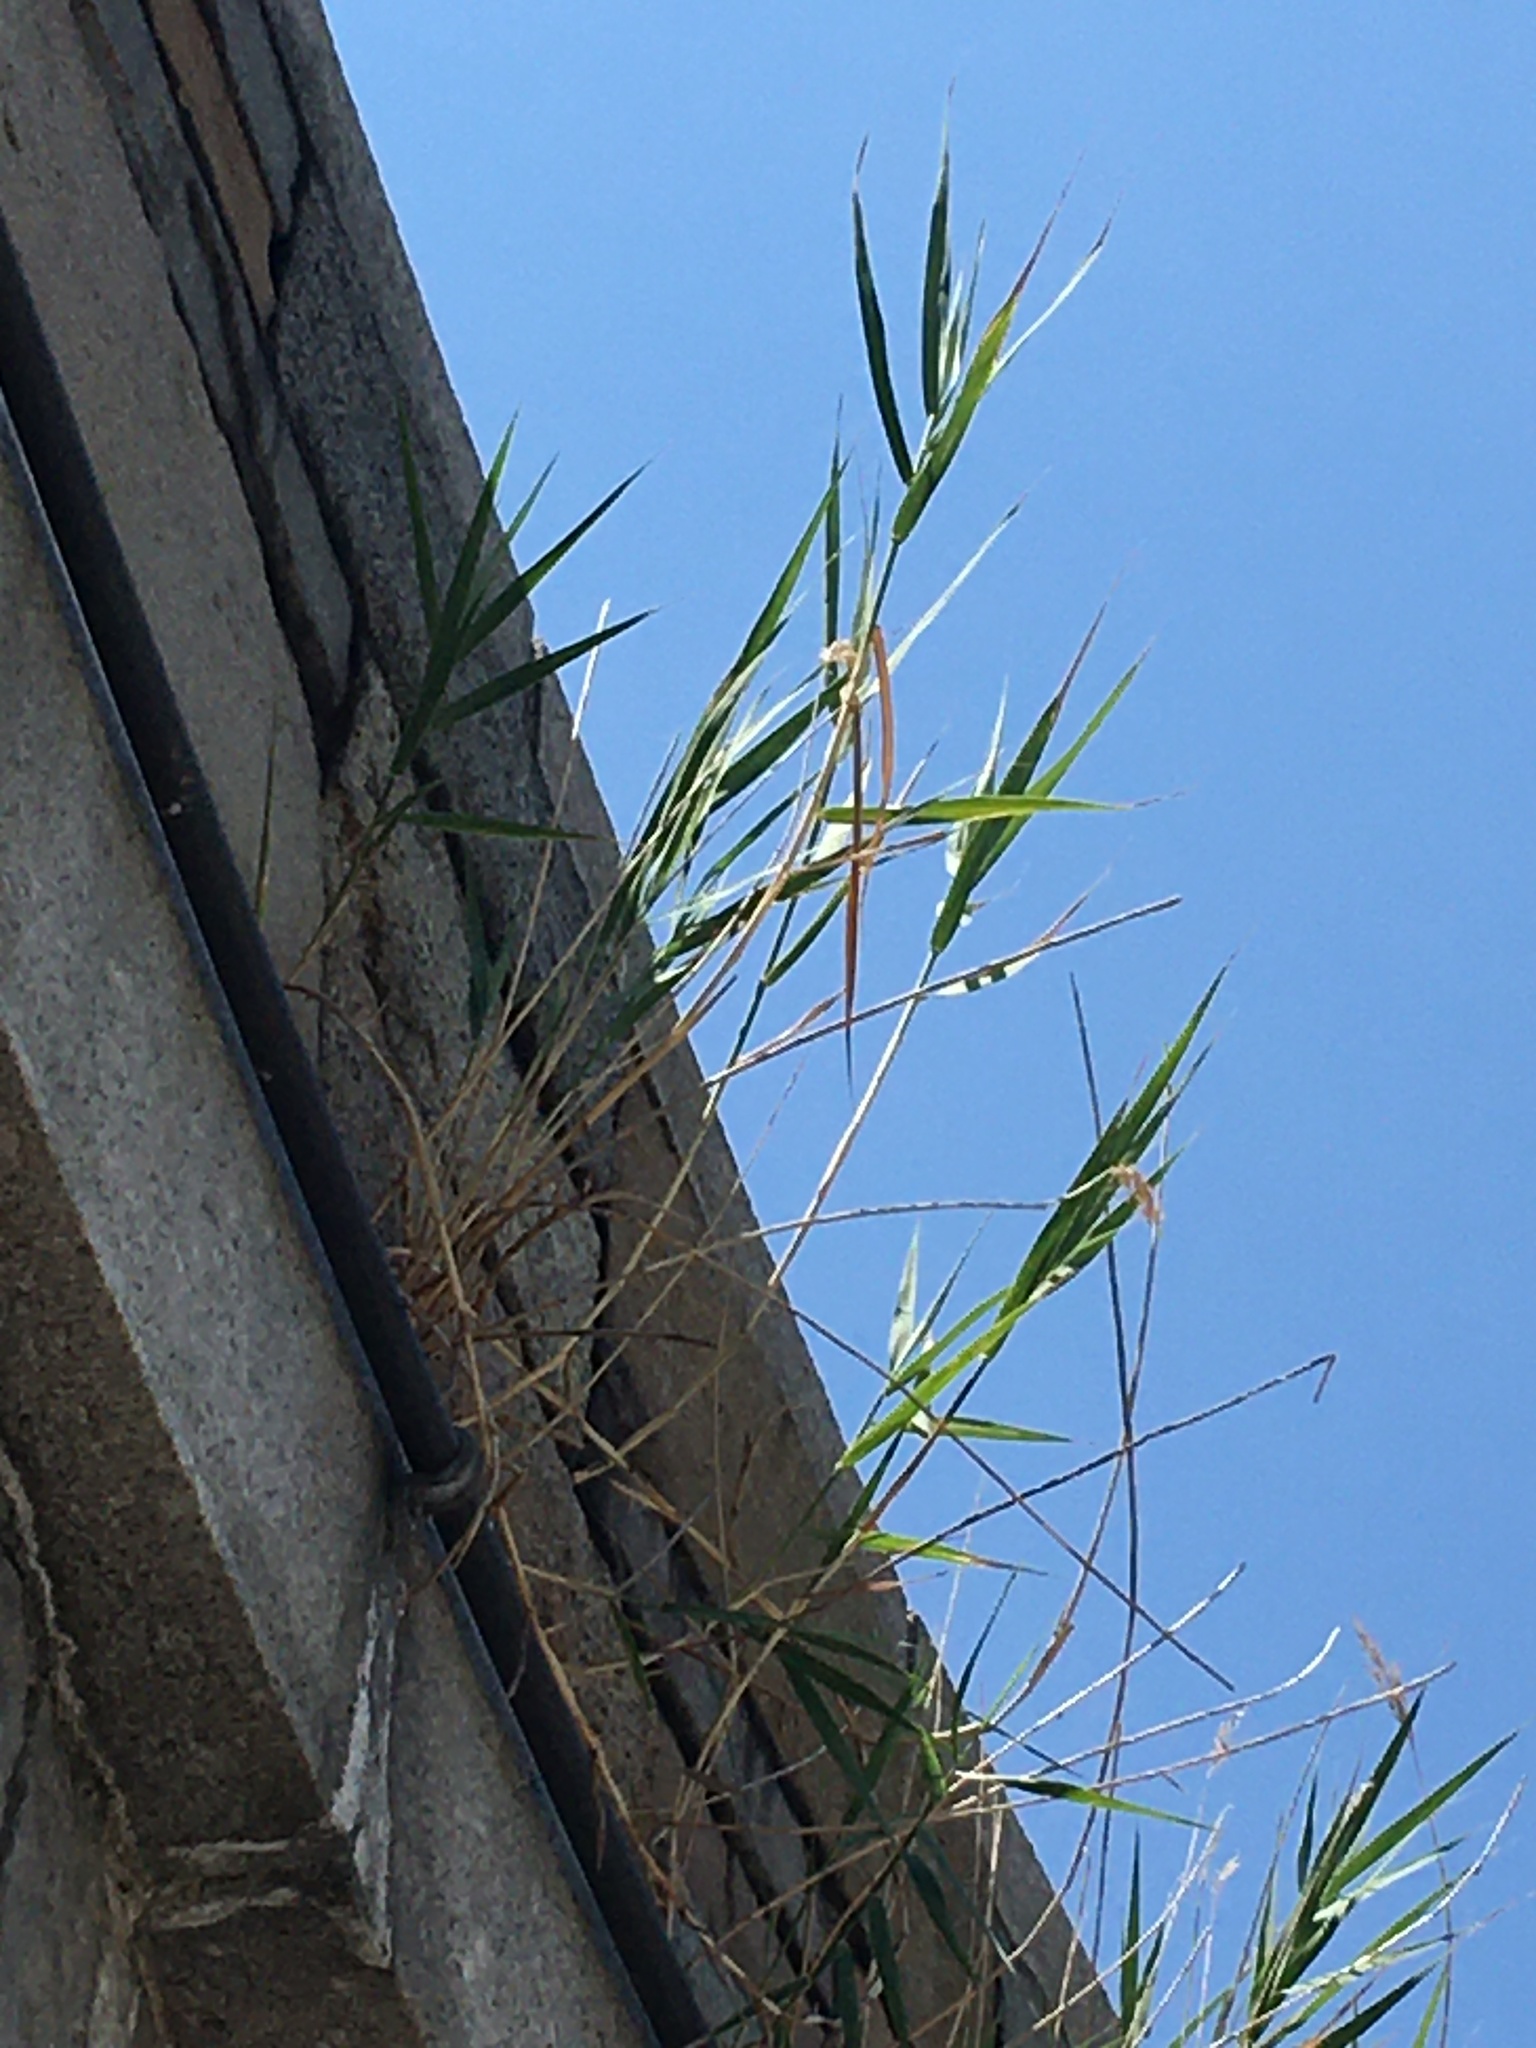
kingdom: Plantae
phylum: Tracheophyta
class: Liliopsida
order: Poales
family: Poaceae
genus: Phragmites
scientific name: Phragmites australis
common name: Common reed
